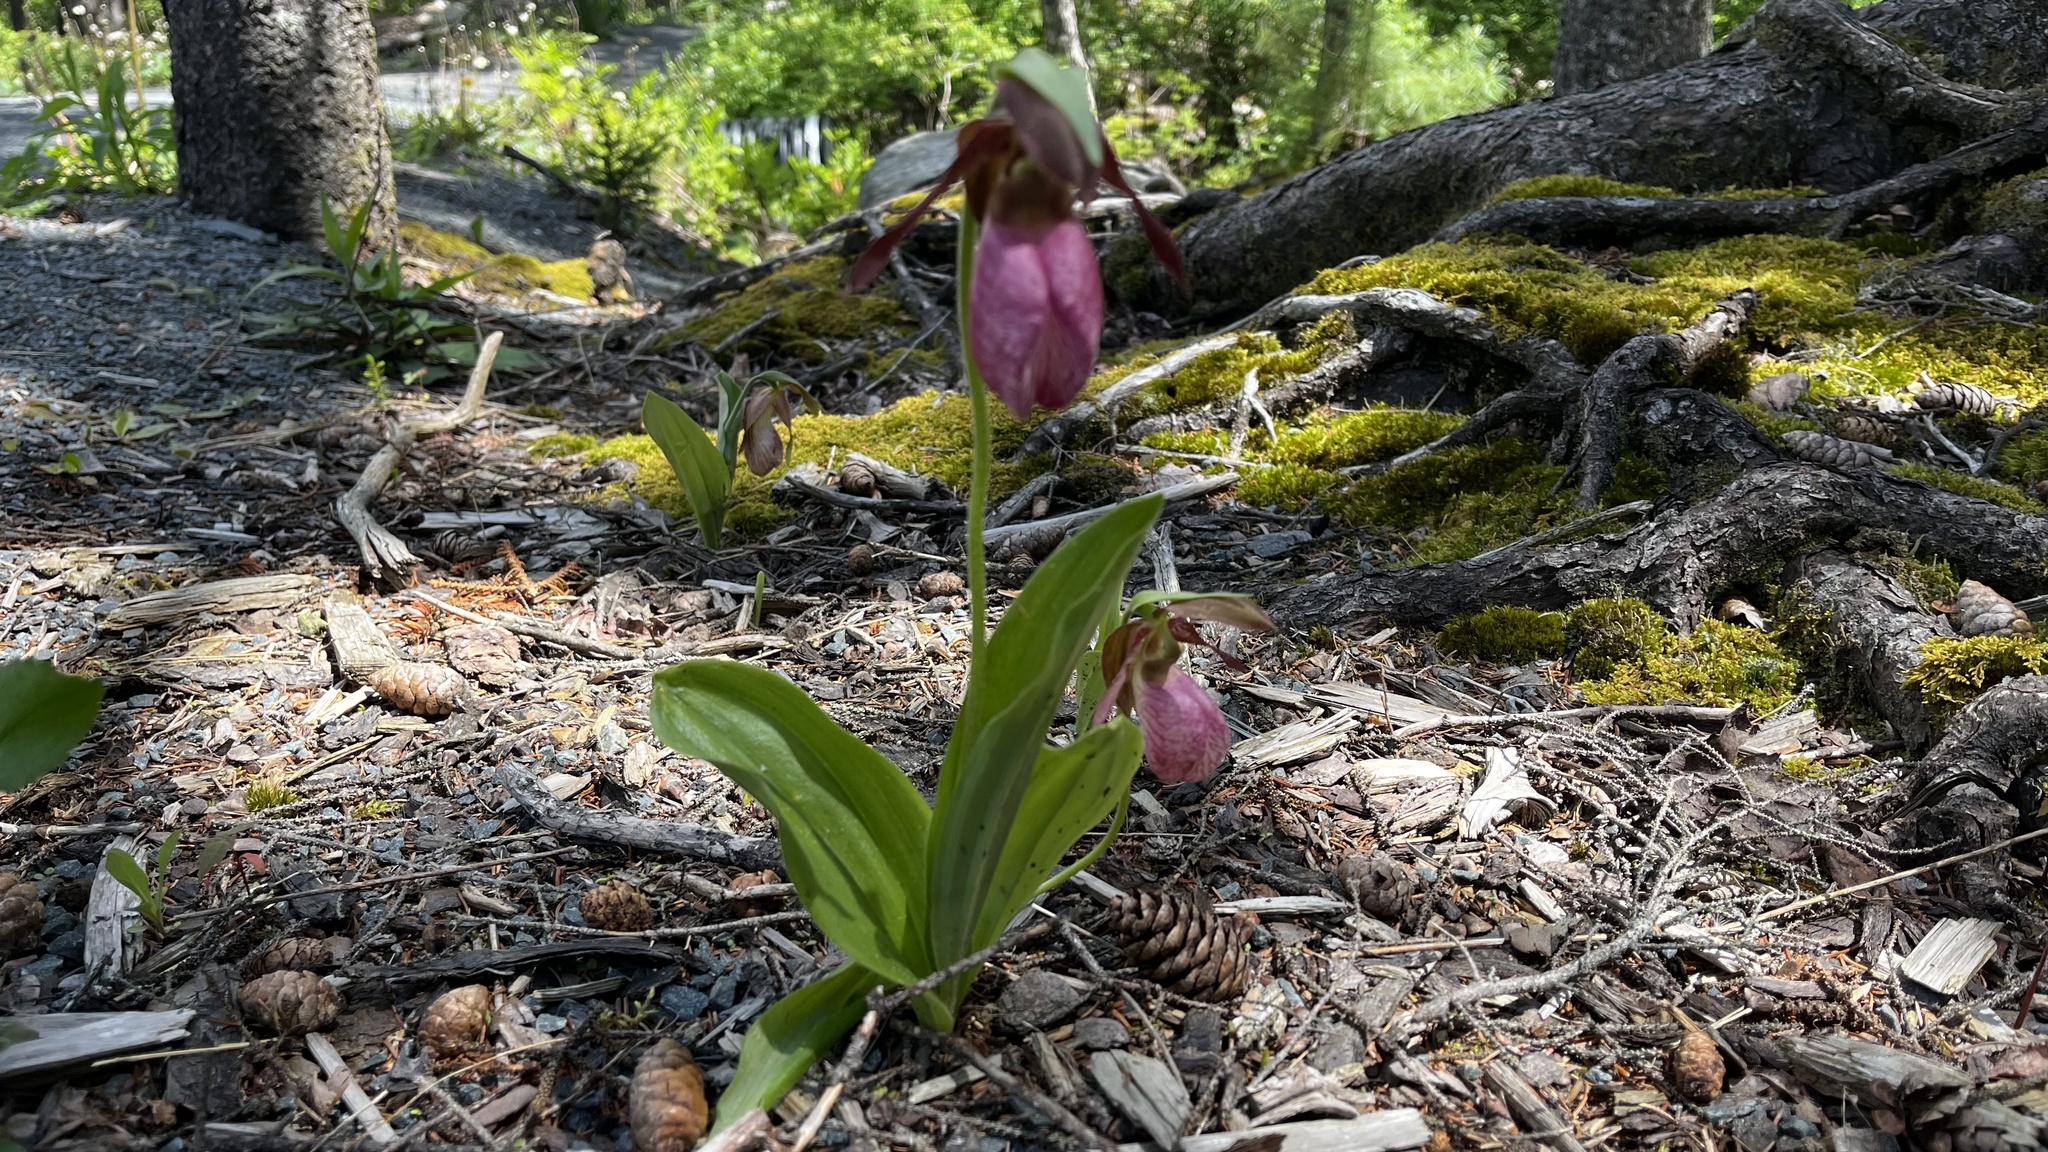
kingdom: Plantae
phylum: Tracheophyta
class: Liliopsida
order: Asparagales
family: Orchidaceae
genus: Cypripedium
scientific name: Cypripedium acaule
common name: Pink lady's-slipper
